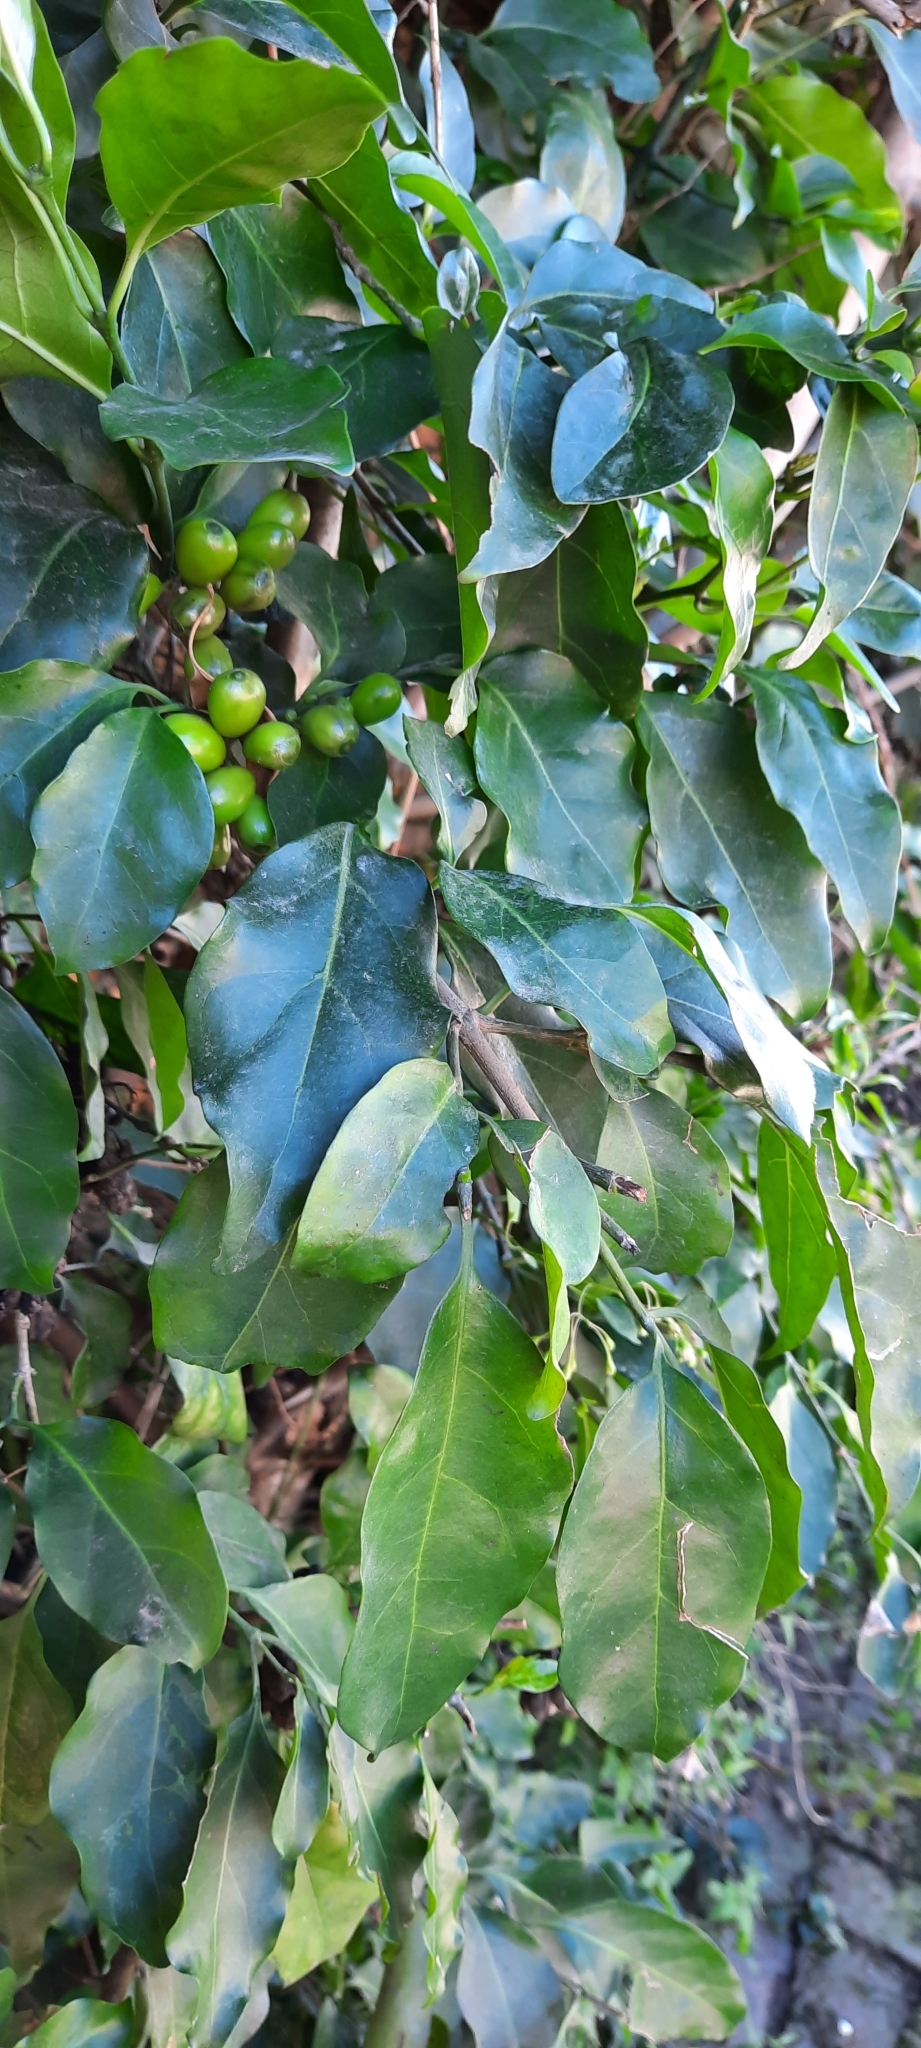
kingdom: Plantae
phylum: Tracheophyta
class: Magnoliopsida
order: Gentianales
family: Rubiaceae
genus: Canthium
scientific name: Canthium inerme
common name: Unarmed turkey-berry
